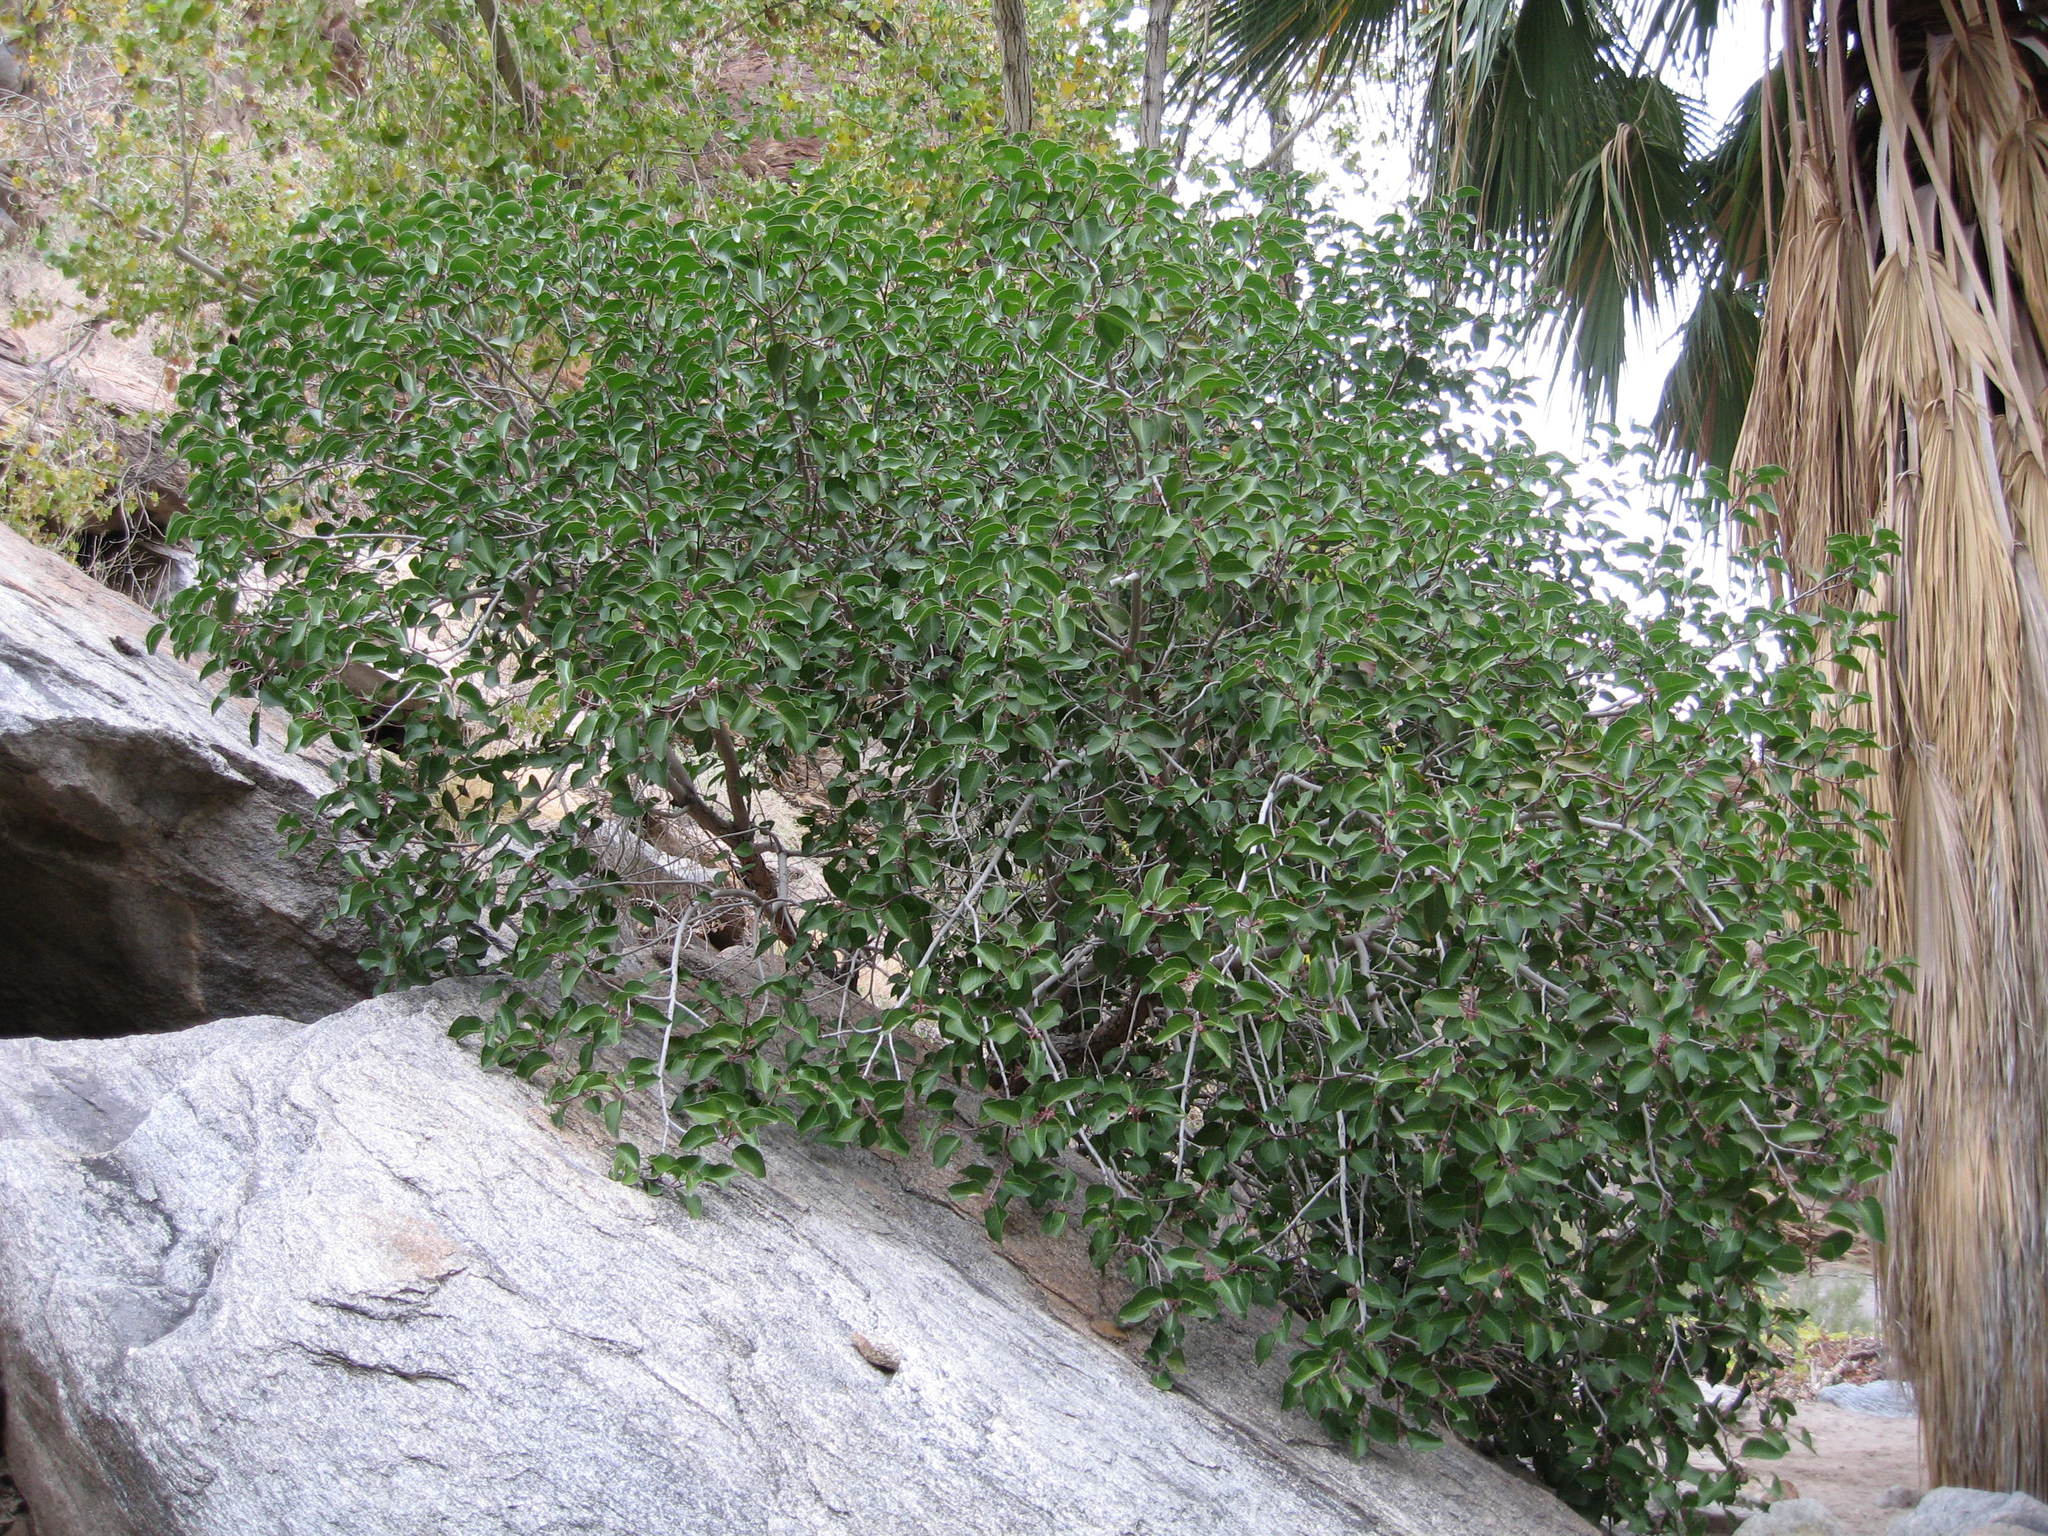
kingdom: Plantae
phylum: Tracheophyta
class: Magnoliopsida
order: Sapindales
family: Anacardiaceae
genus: Rhus
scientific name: Rhus ovata
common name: Sugar sumac
